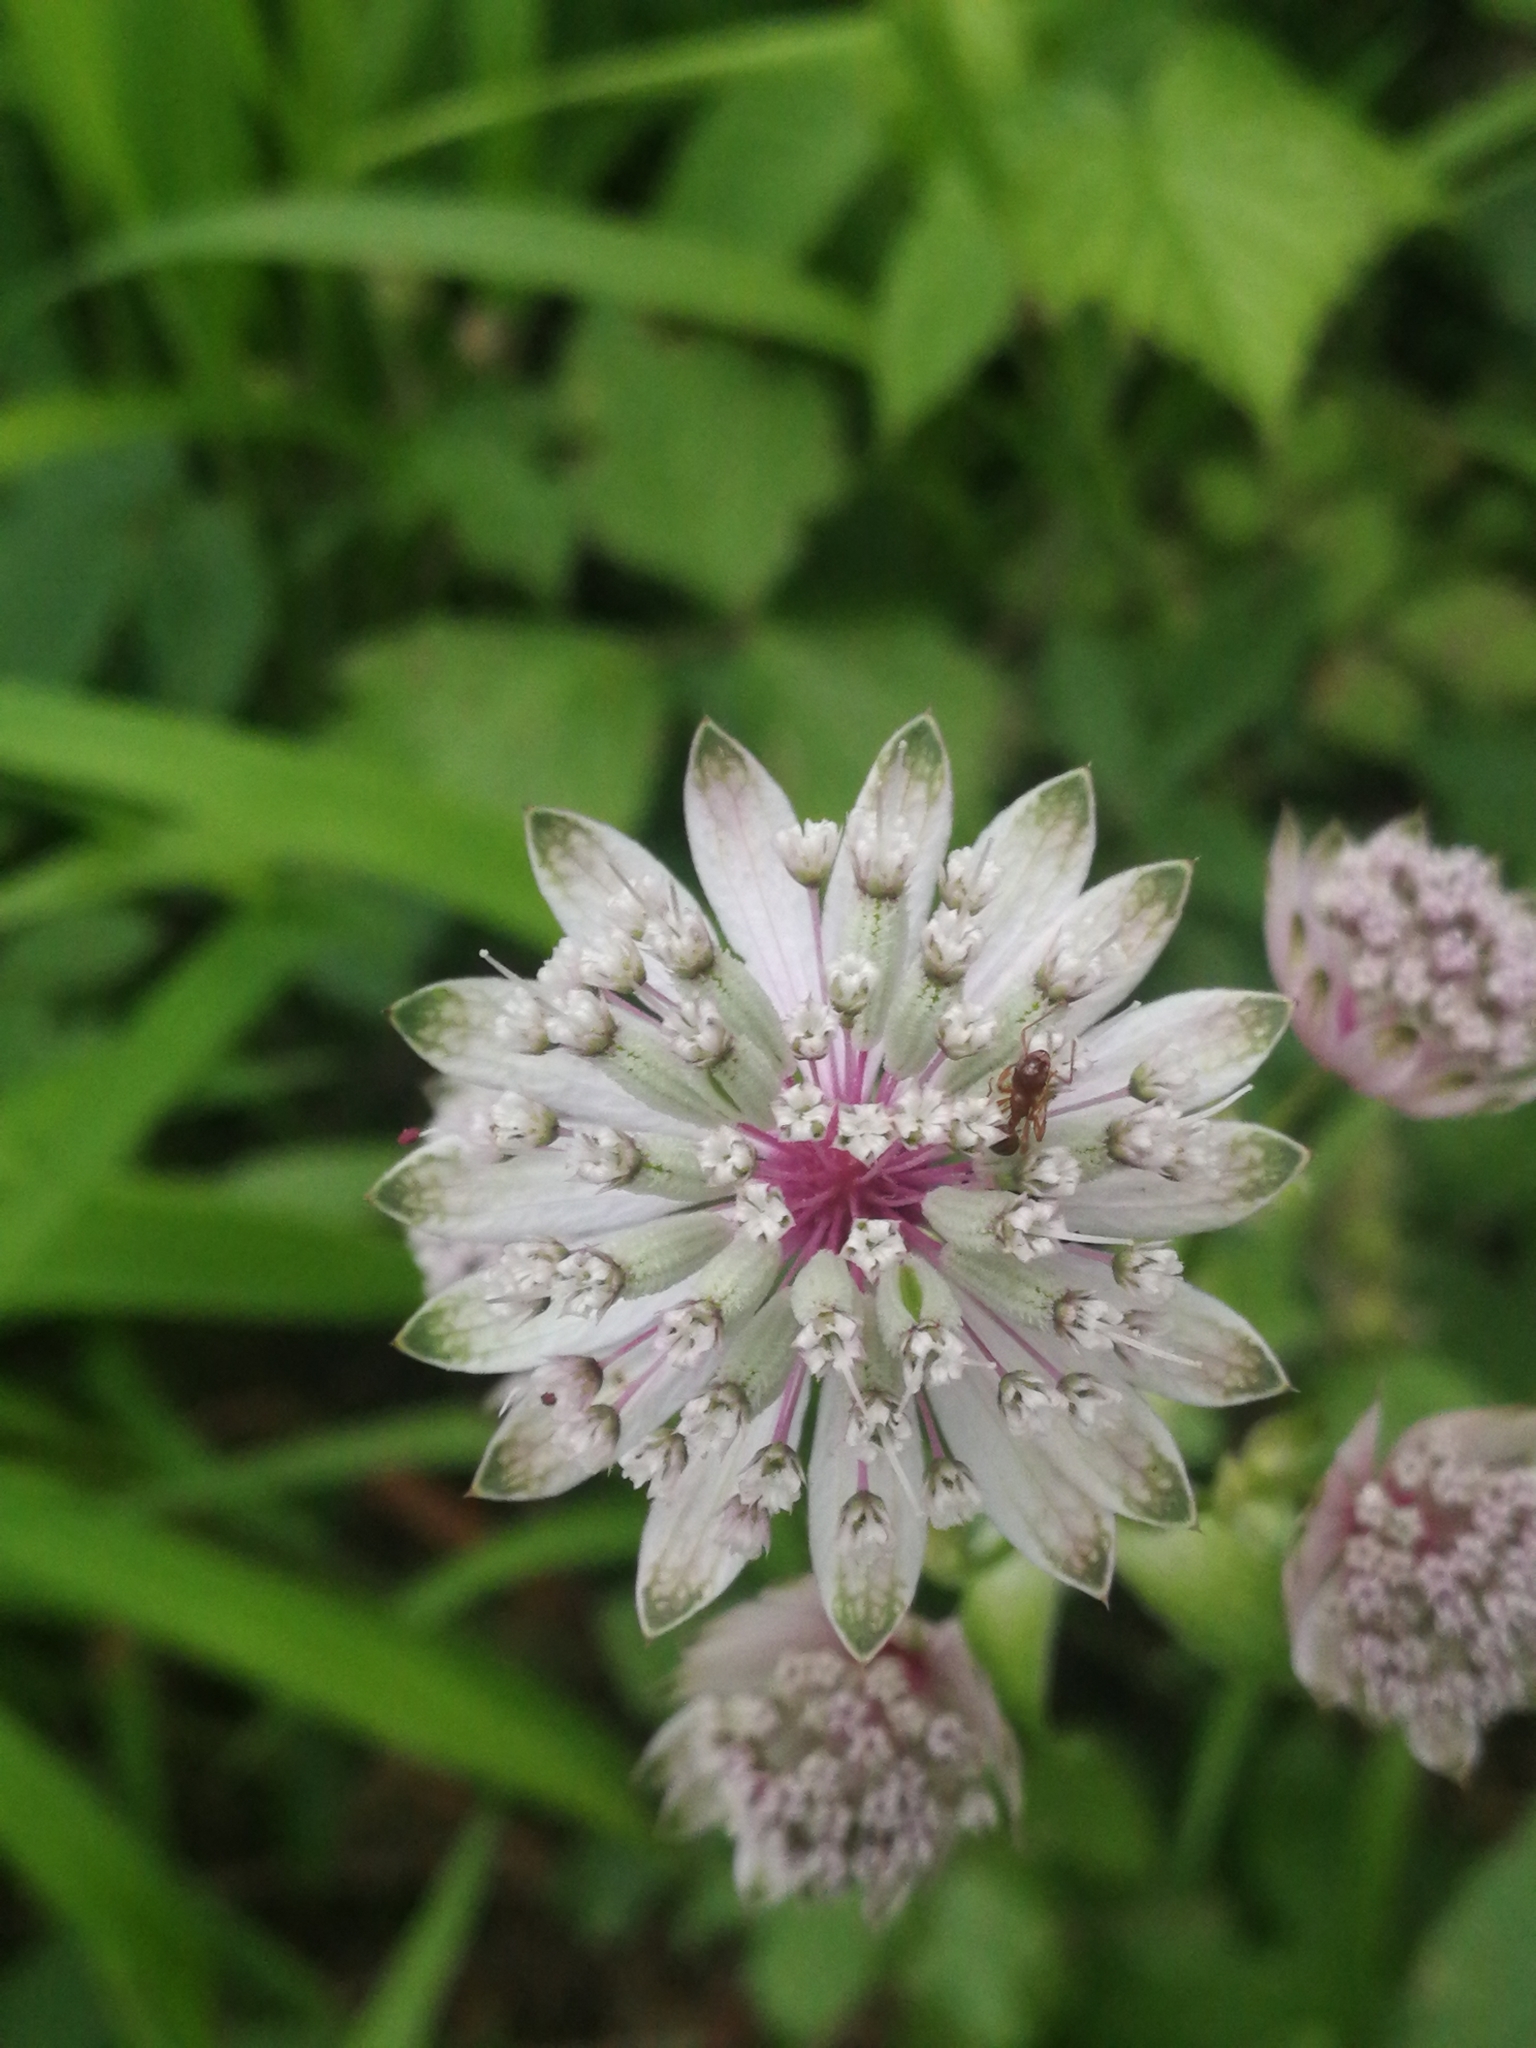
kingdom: Plantae
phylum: Tracheophyta
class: Magnoliopsida
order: Apiales
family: Apiaceae
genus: Astrantia
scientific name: Astrantia major
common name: Greater masterwort
